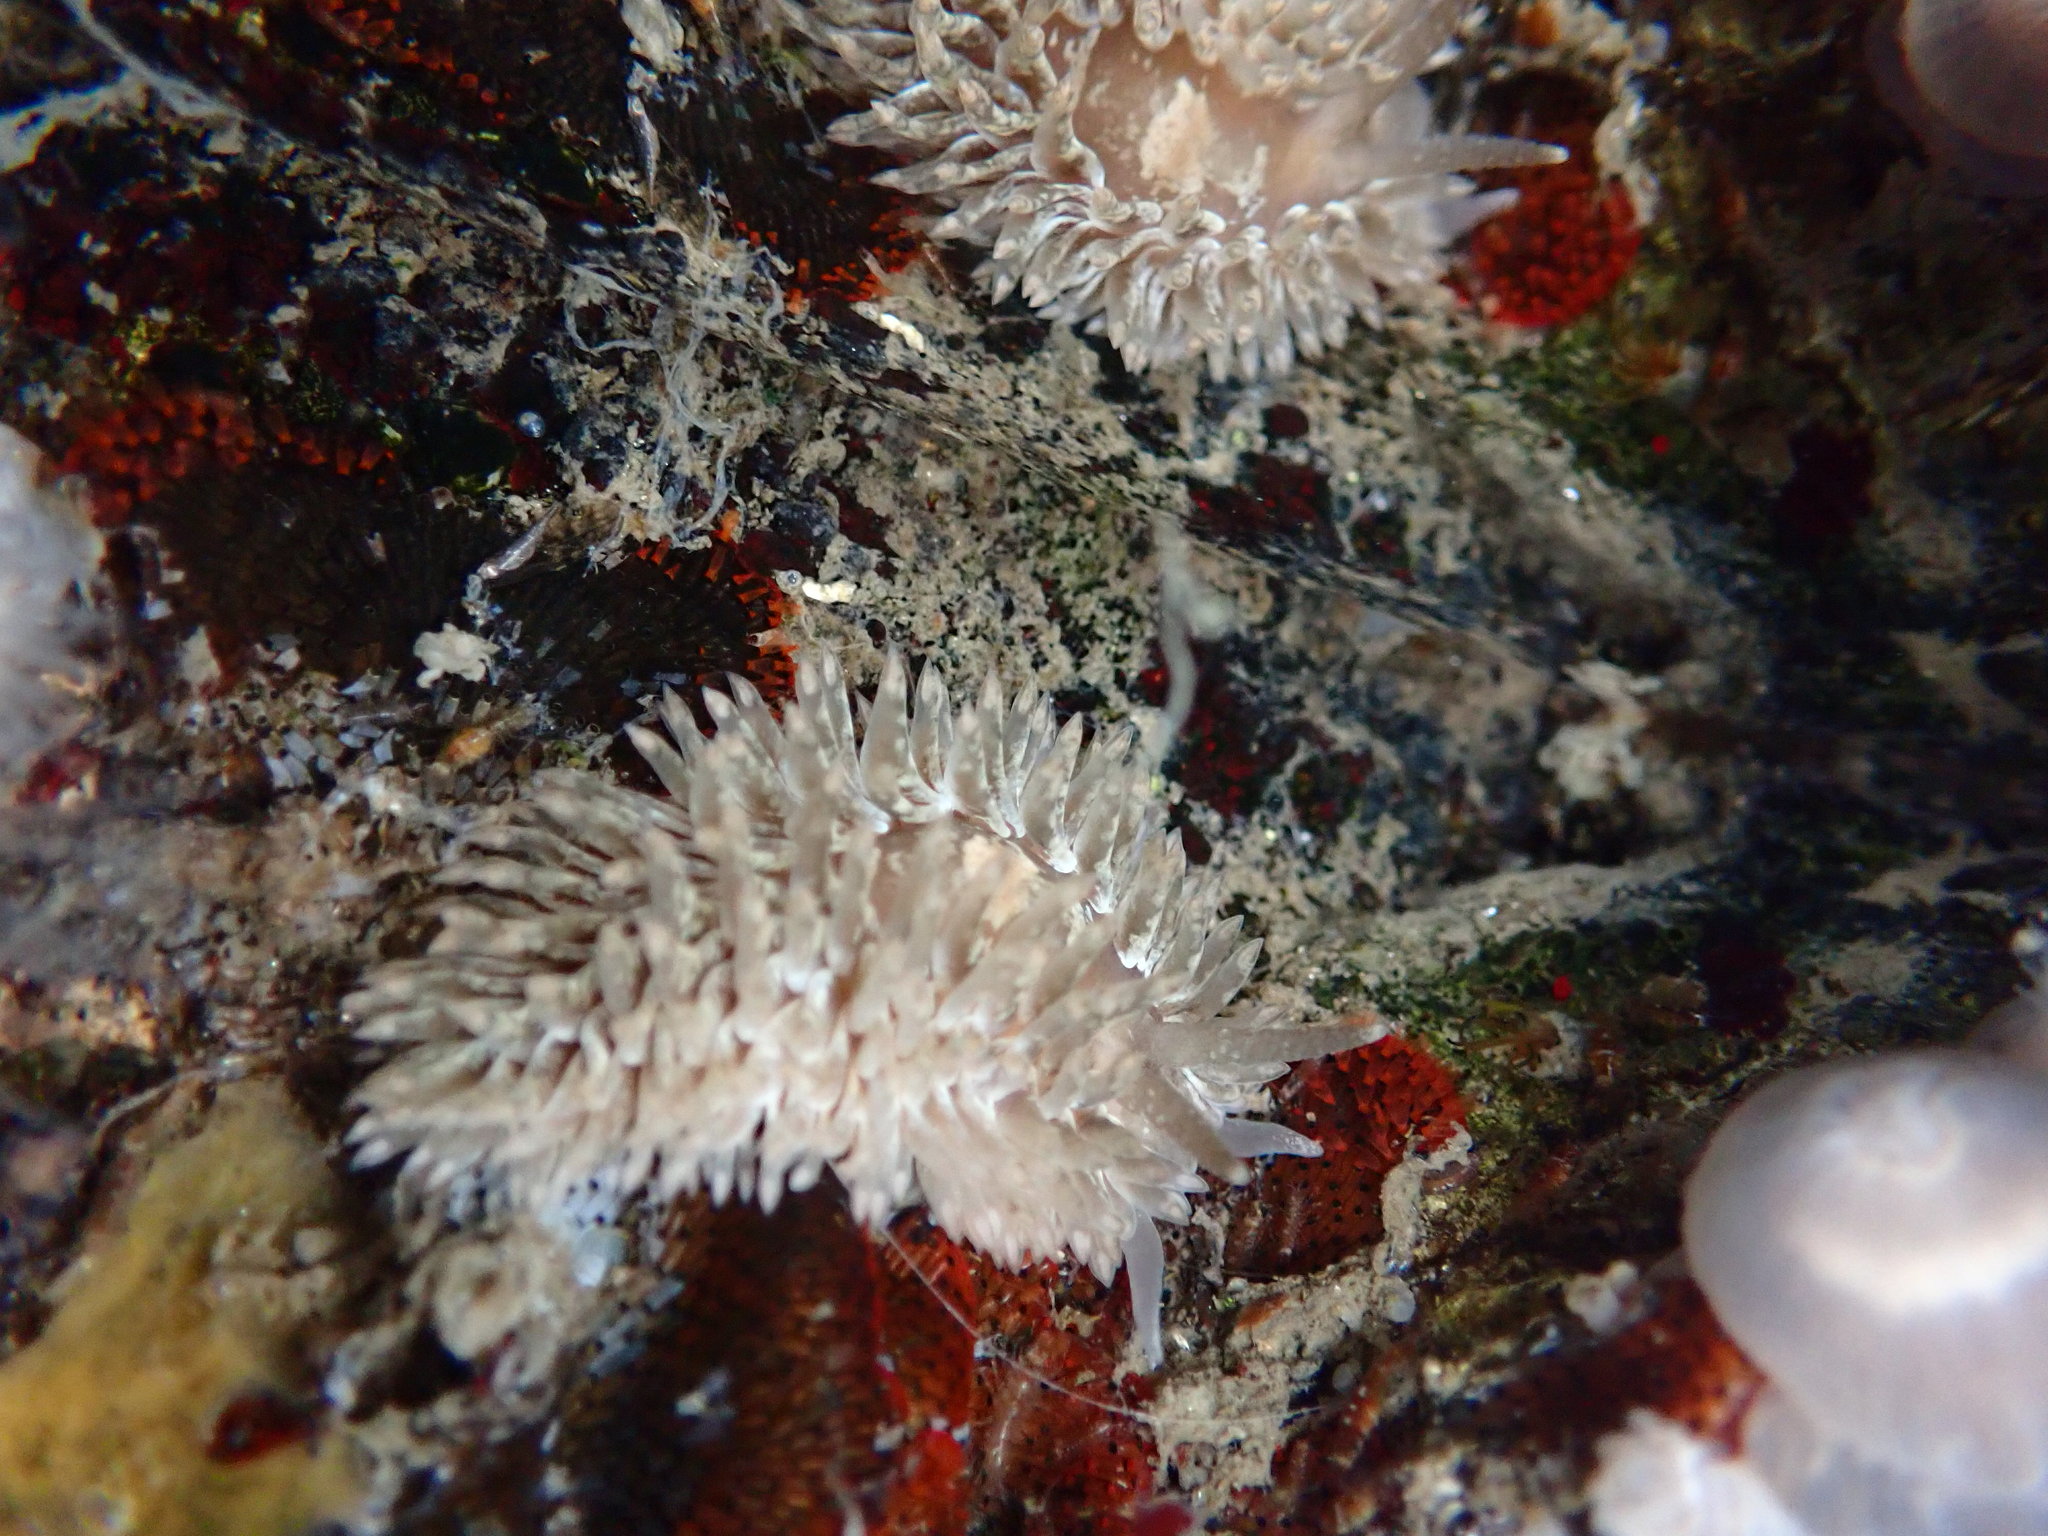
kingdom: Animalia
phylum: Mollusca
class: Gastropoda
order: Nudibranchia
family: Aeolidiidae
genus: Aeolidia
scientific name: Aeolidia loui
